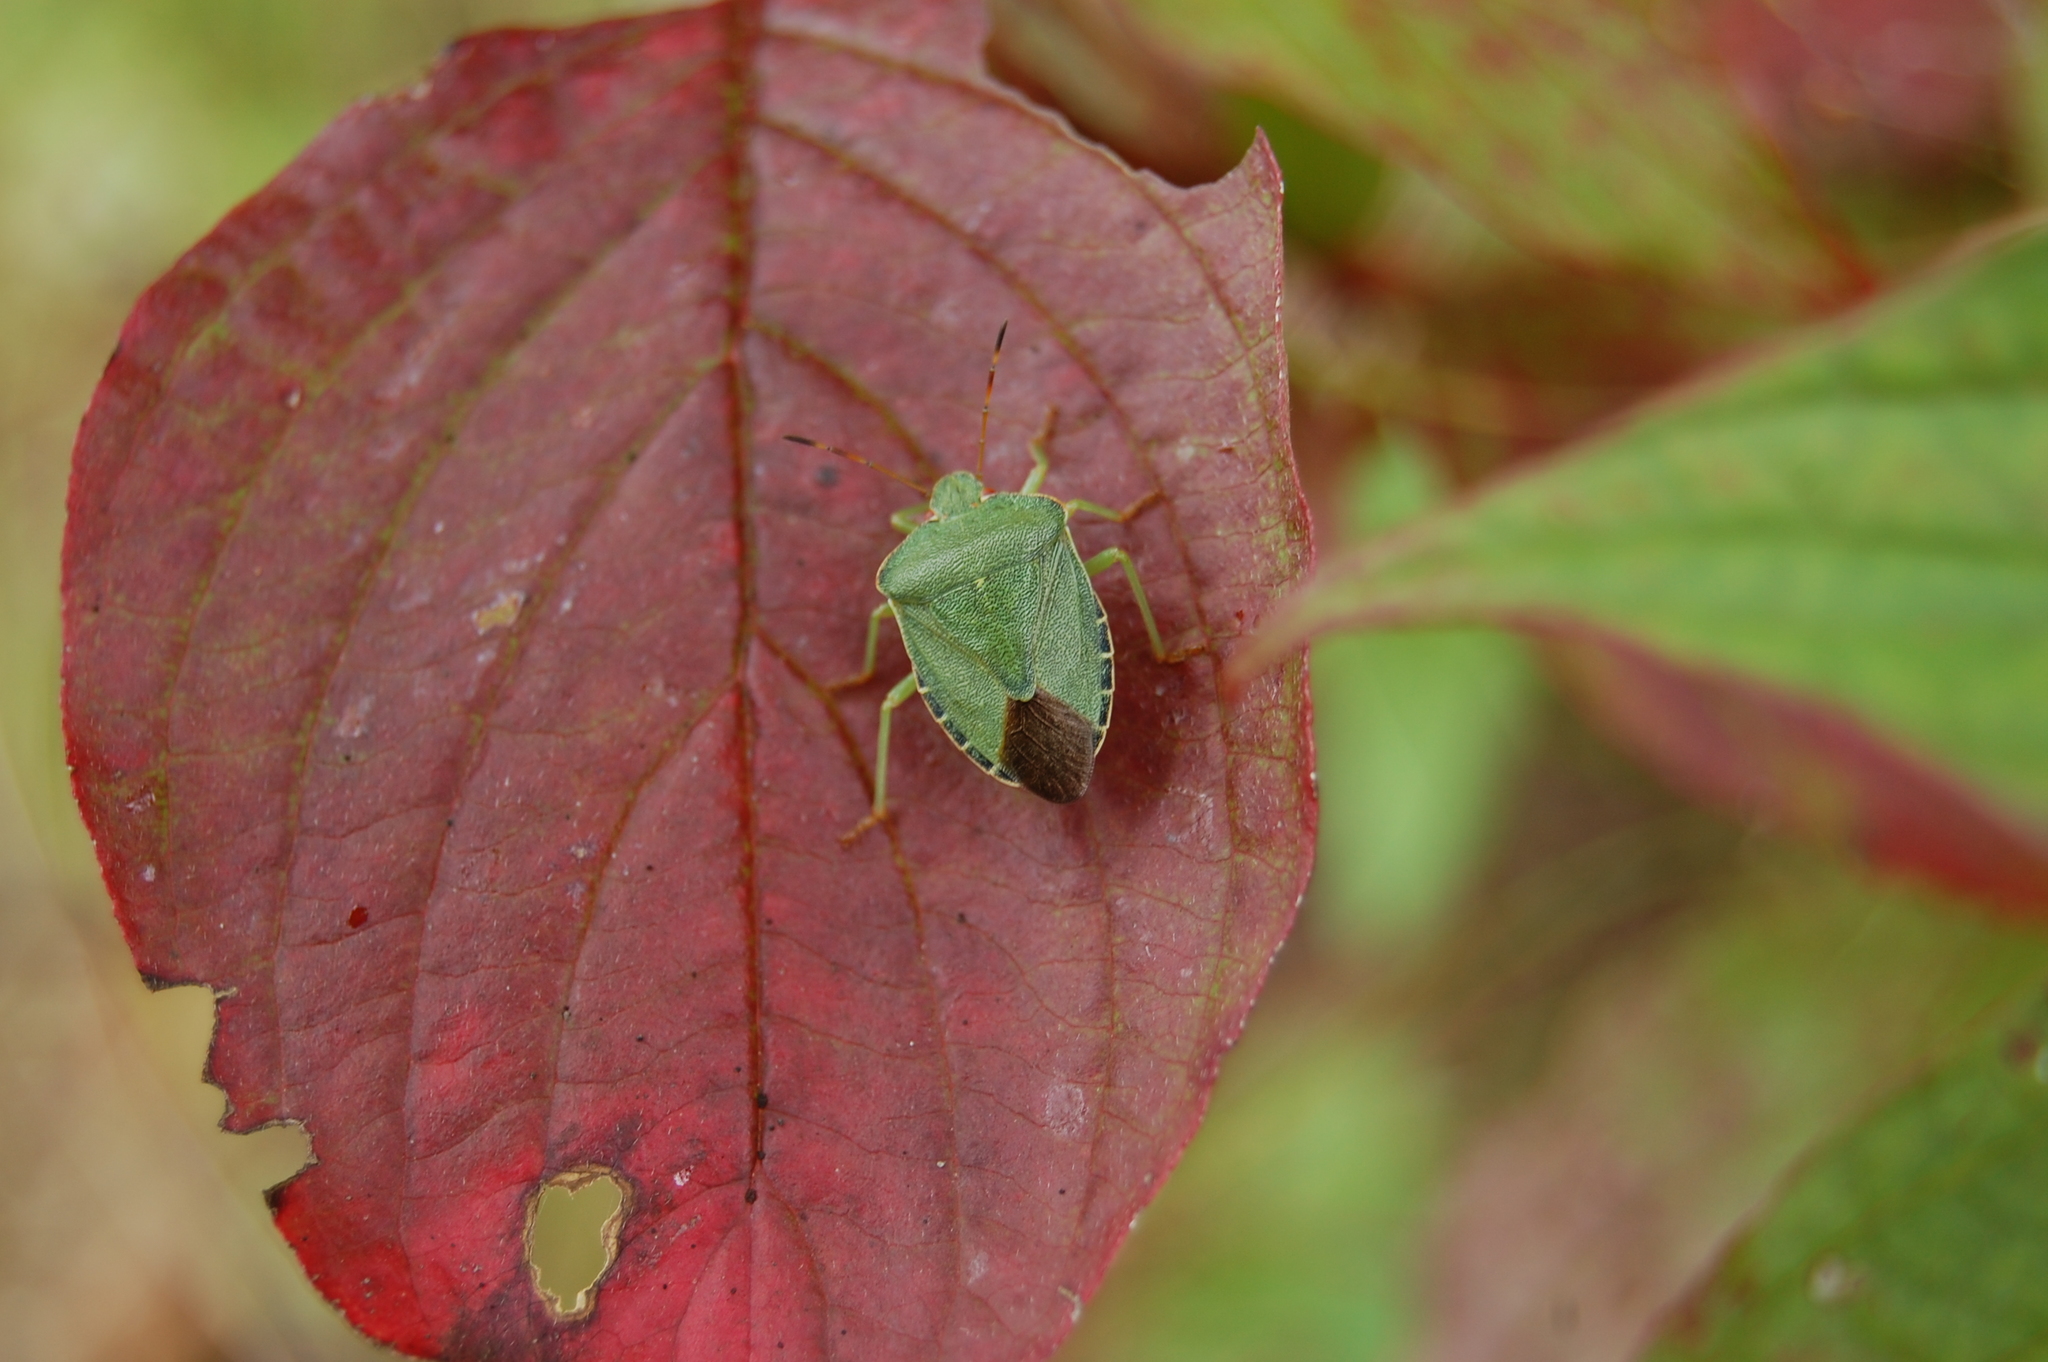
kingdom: Animalia
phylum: Arthropoda
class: Insecta
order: Hemiptera
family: Pentatomidae
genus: Palomena
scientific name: Palomena prasina
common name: Green shieldbug
